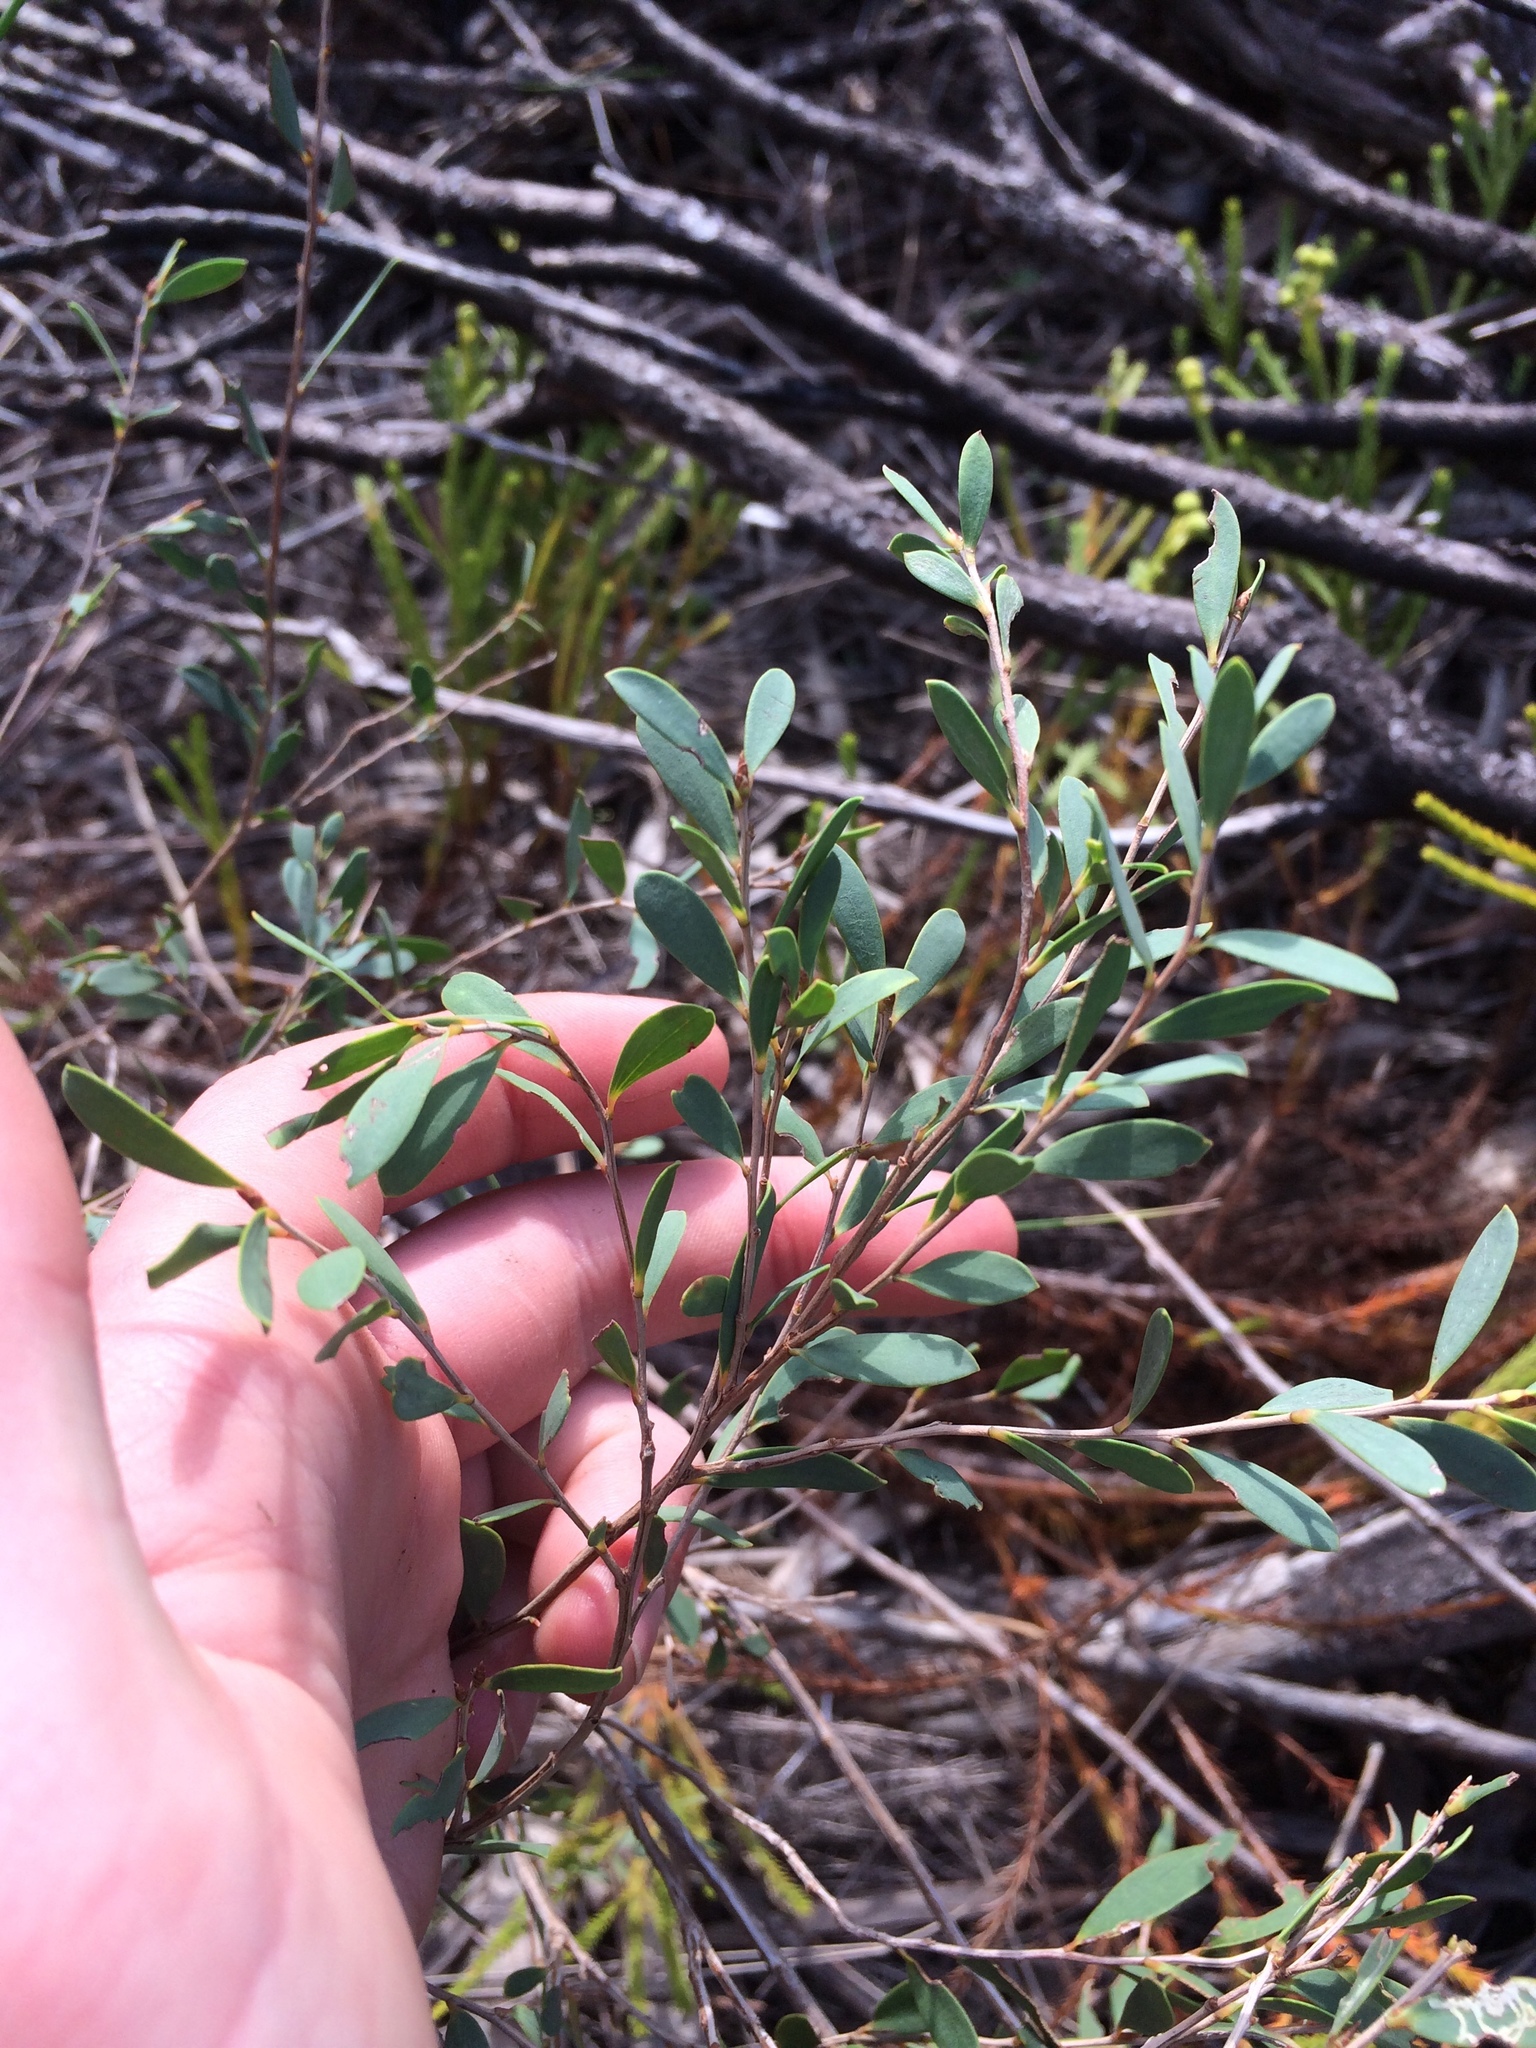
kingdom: Plantae
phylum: Tracheophyta
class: Magnoliopsida
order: Myrtales
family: Myrtaceae
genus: Leptospermum
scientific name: Leptospermum laevigatum
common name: Australian teatree
